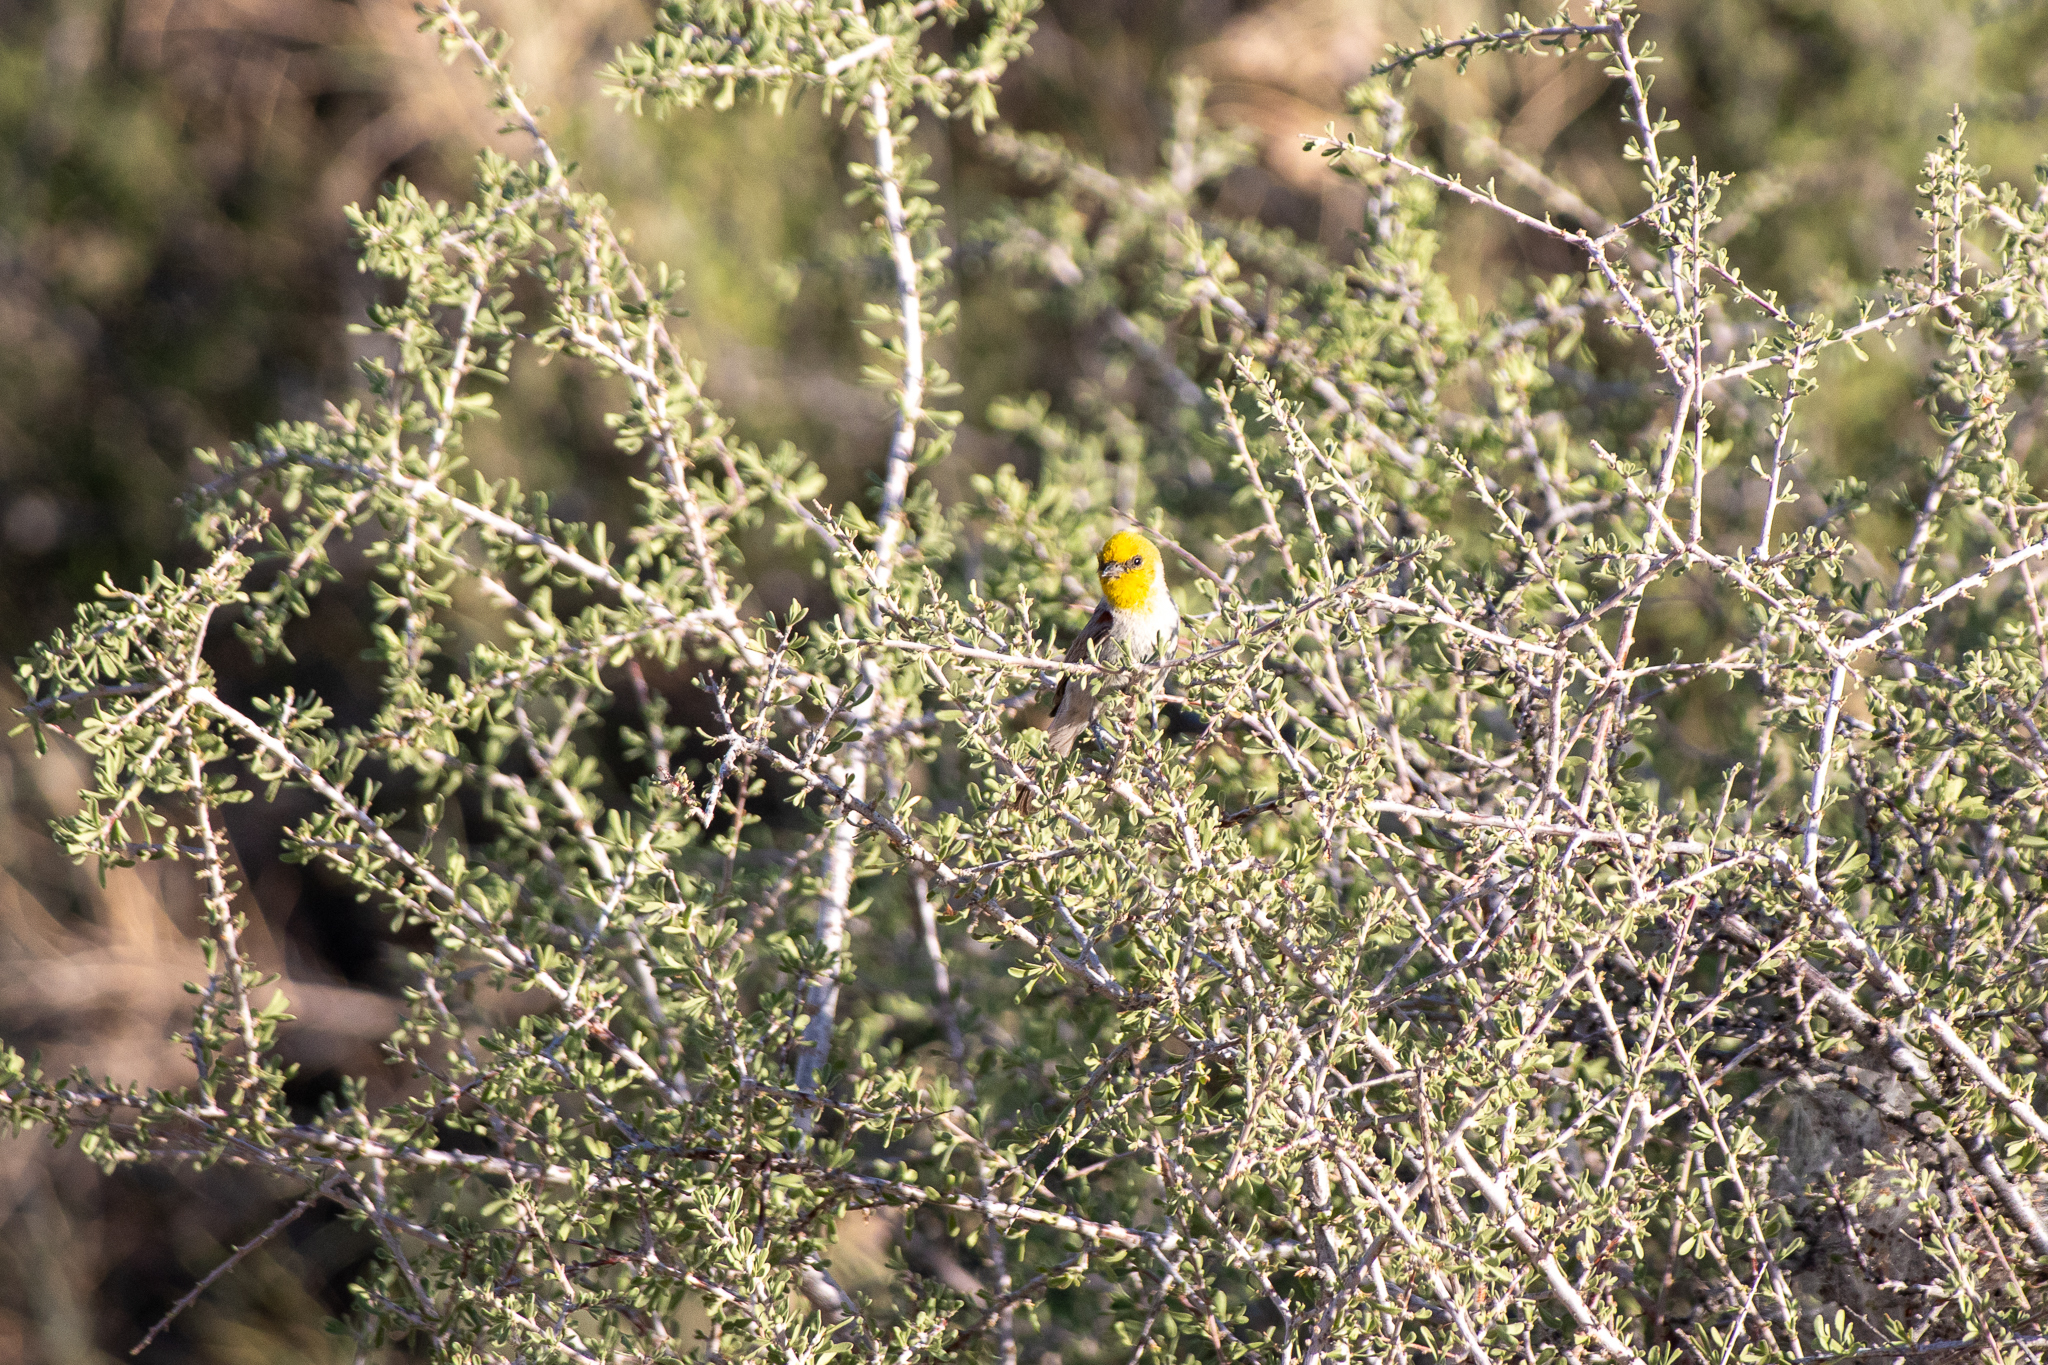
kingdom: Animalia
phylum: Chordata
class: Aves
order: Passeriformes
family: Remizidae
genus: Auriparus
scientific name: Auriparus flaviceps
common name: Verdin
